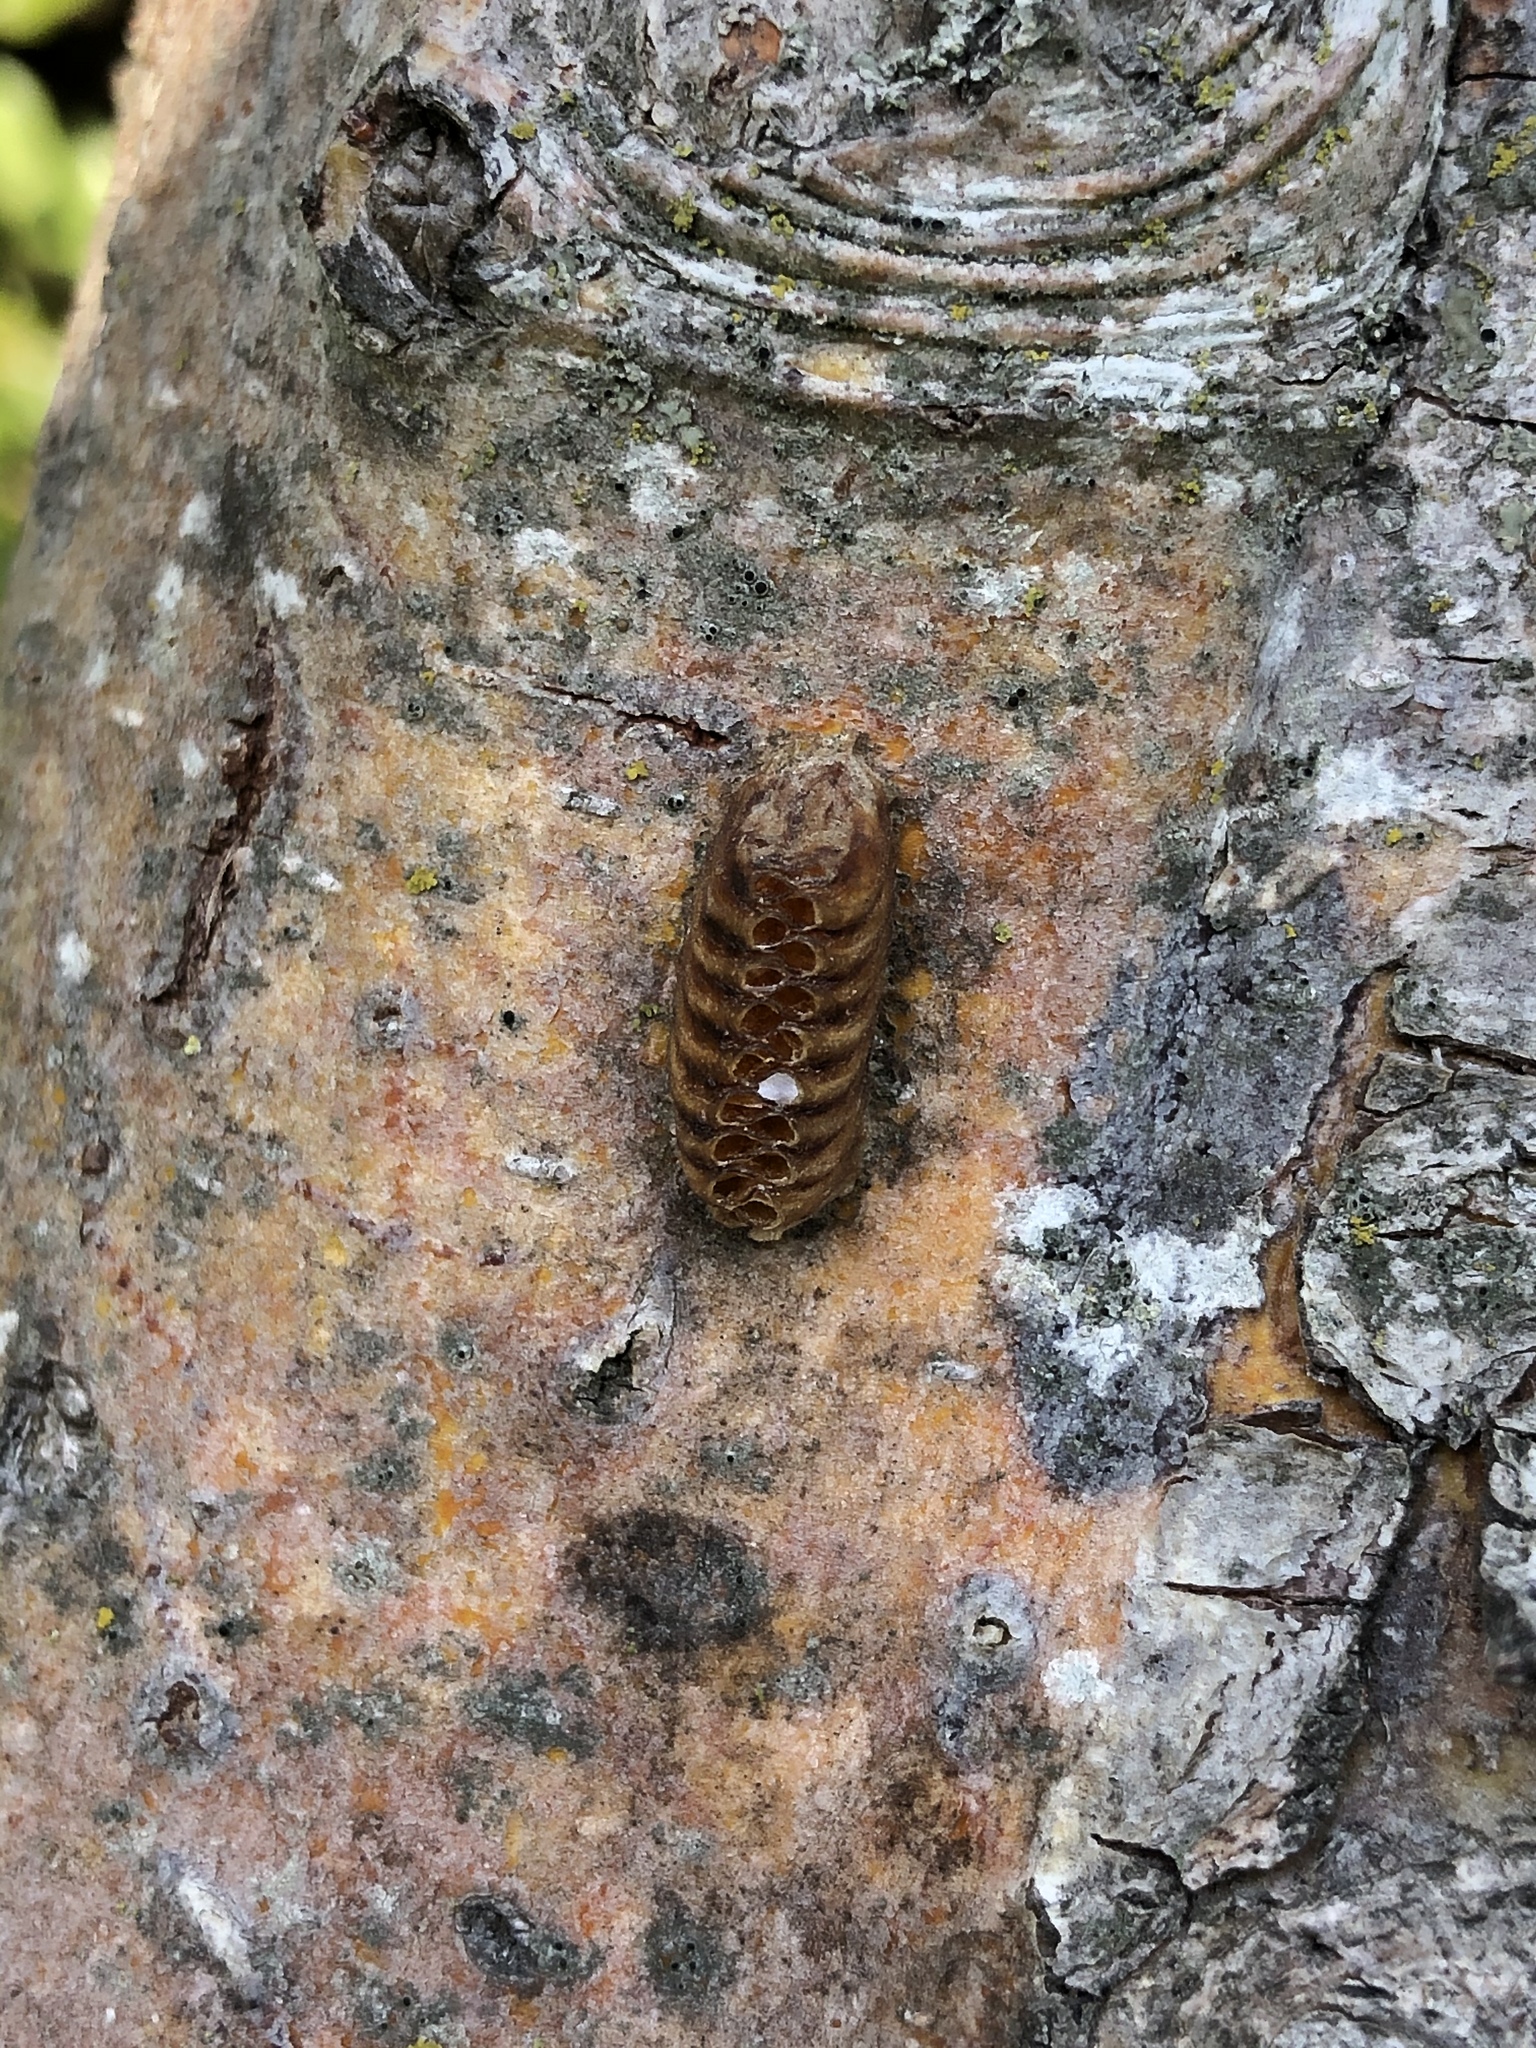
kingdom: Animalia
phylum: Arthropoda
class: Insecta
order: Mantodea
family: Mantidae
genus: Orthodera
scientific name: Orthodera novaezealandiae
